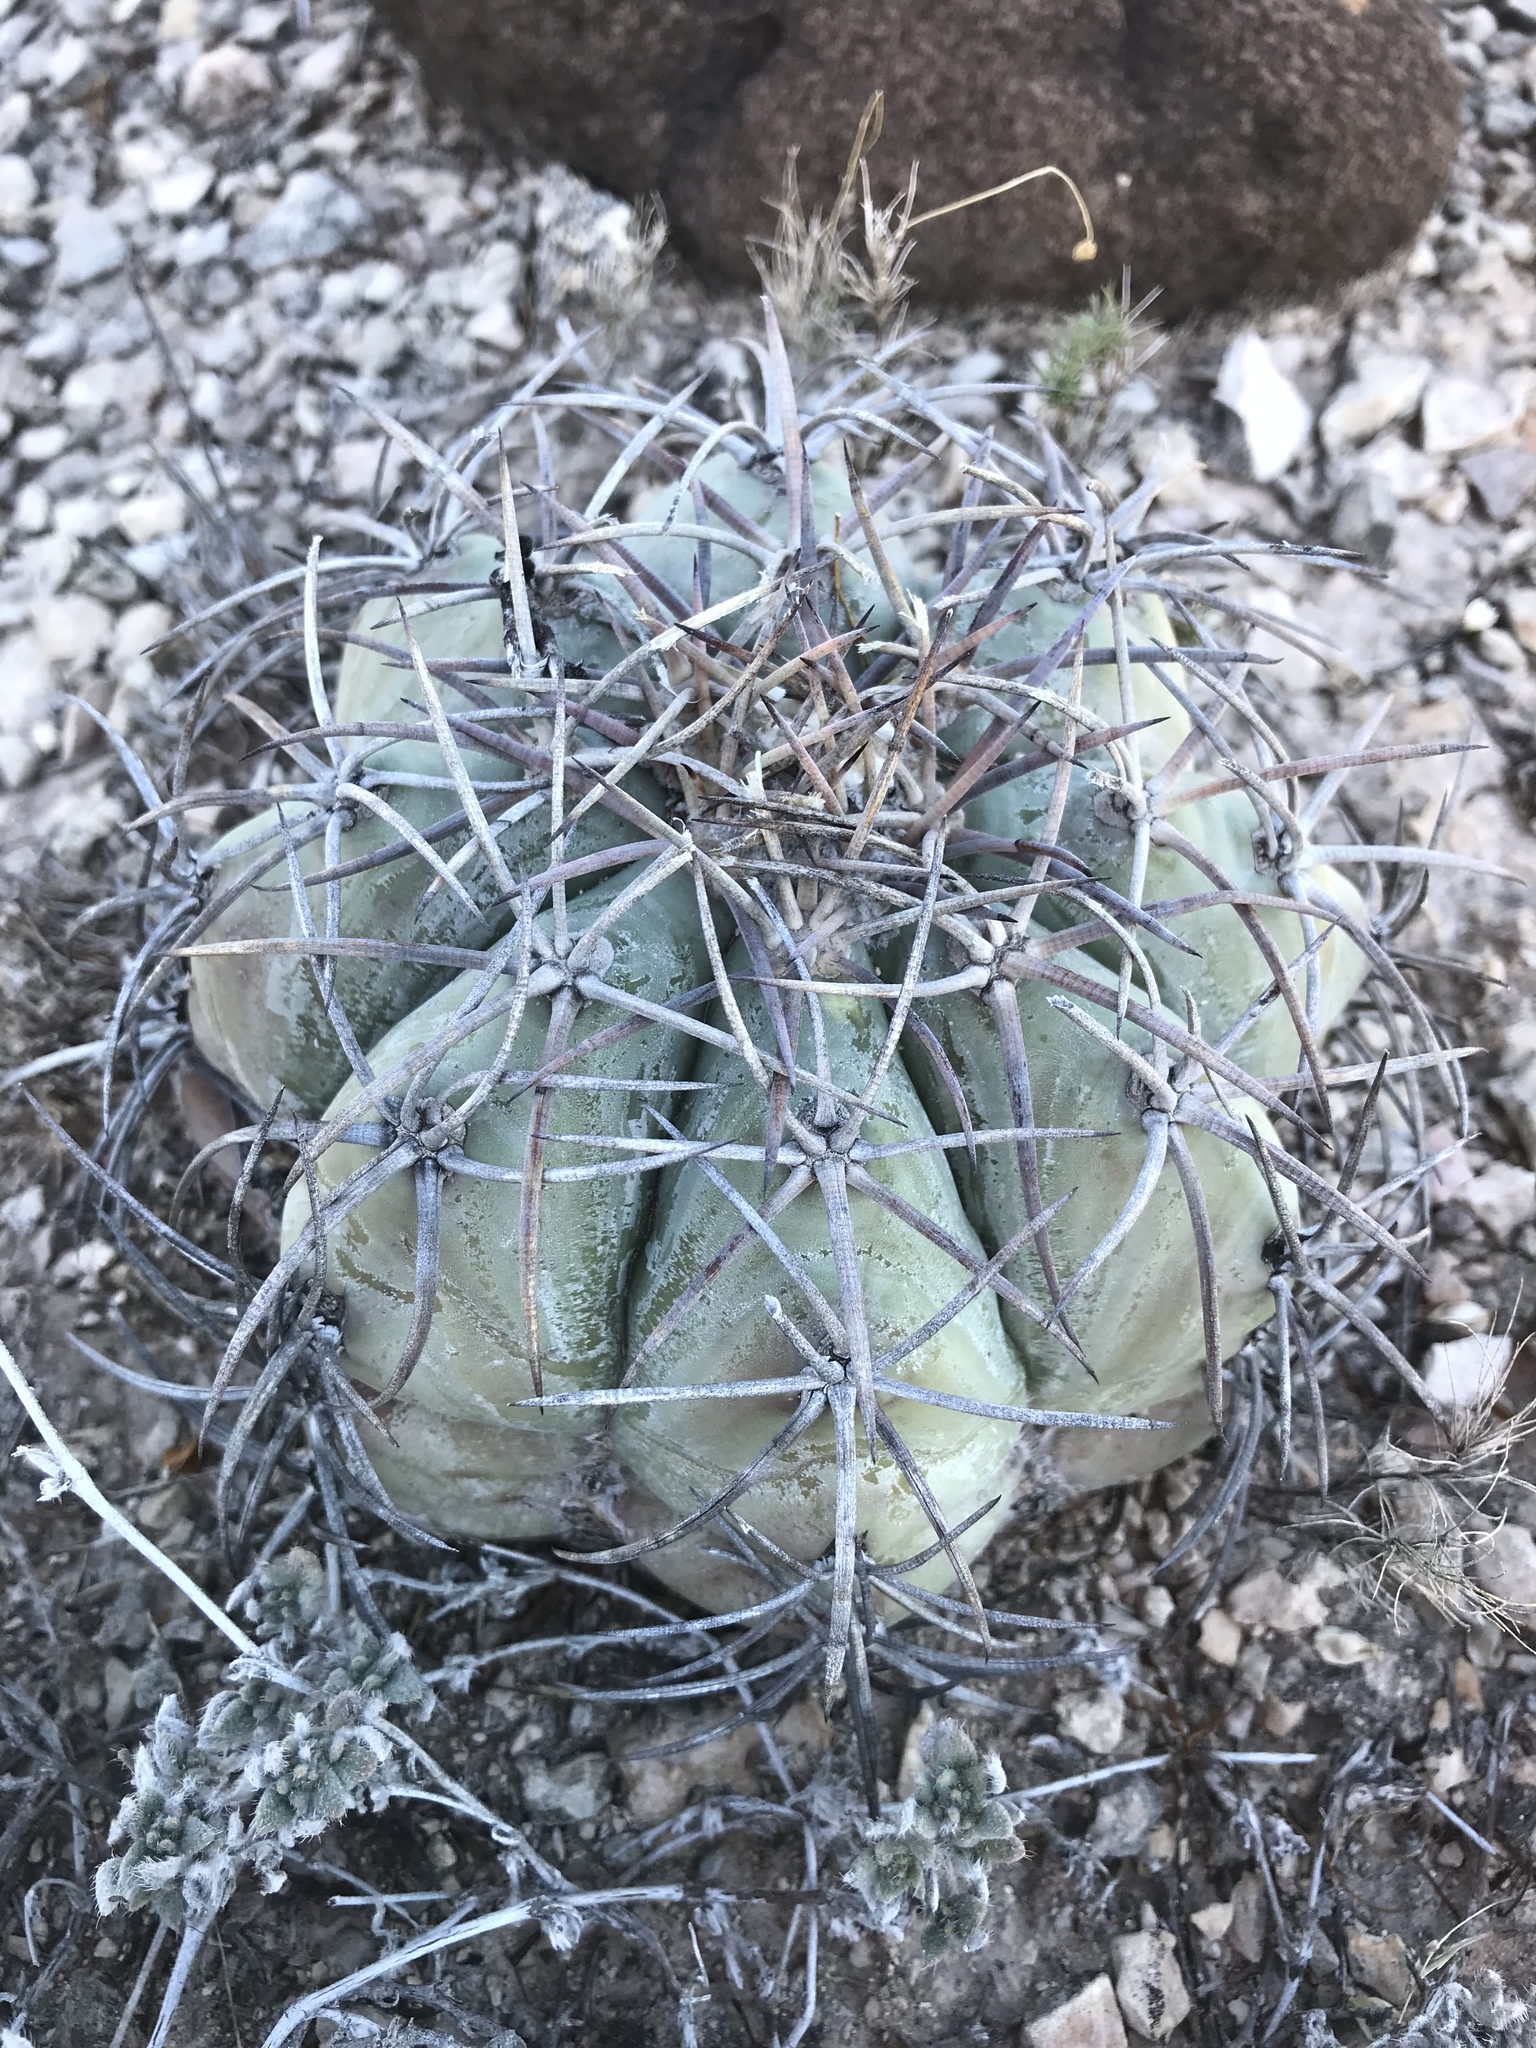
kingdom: Plantae
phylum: Tracheophyta
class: Magnoliopsida
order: Caryophyllales
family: Cactaceae
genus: Echinocactus
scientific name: Echinocactus horizonthalonius
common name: Devilshead
